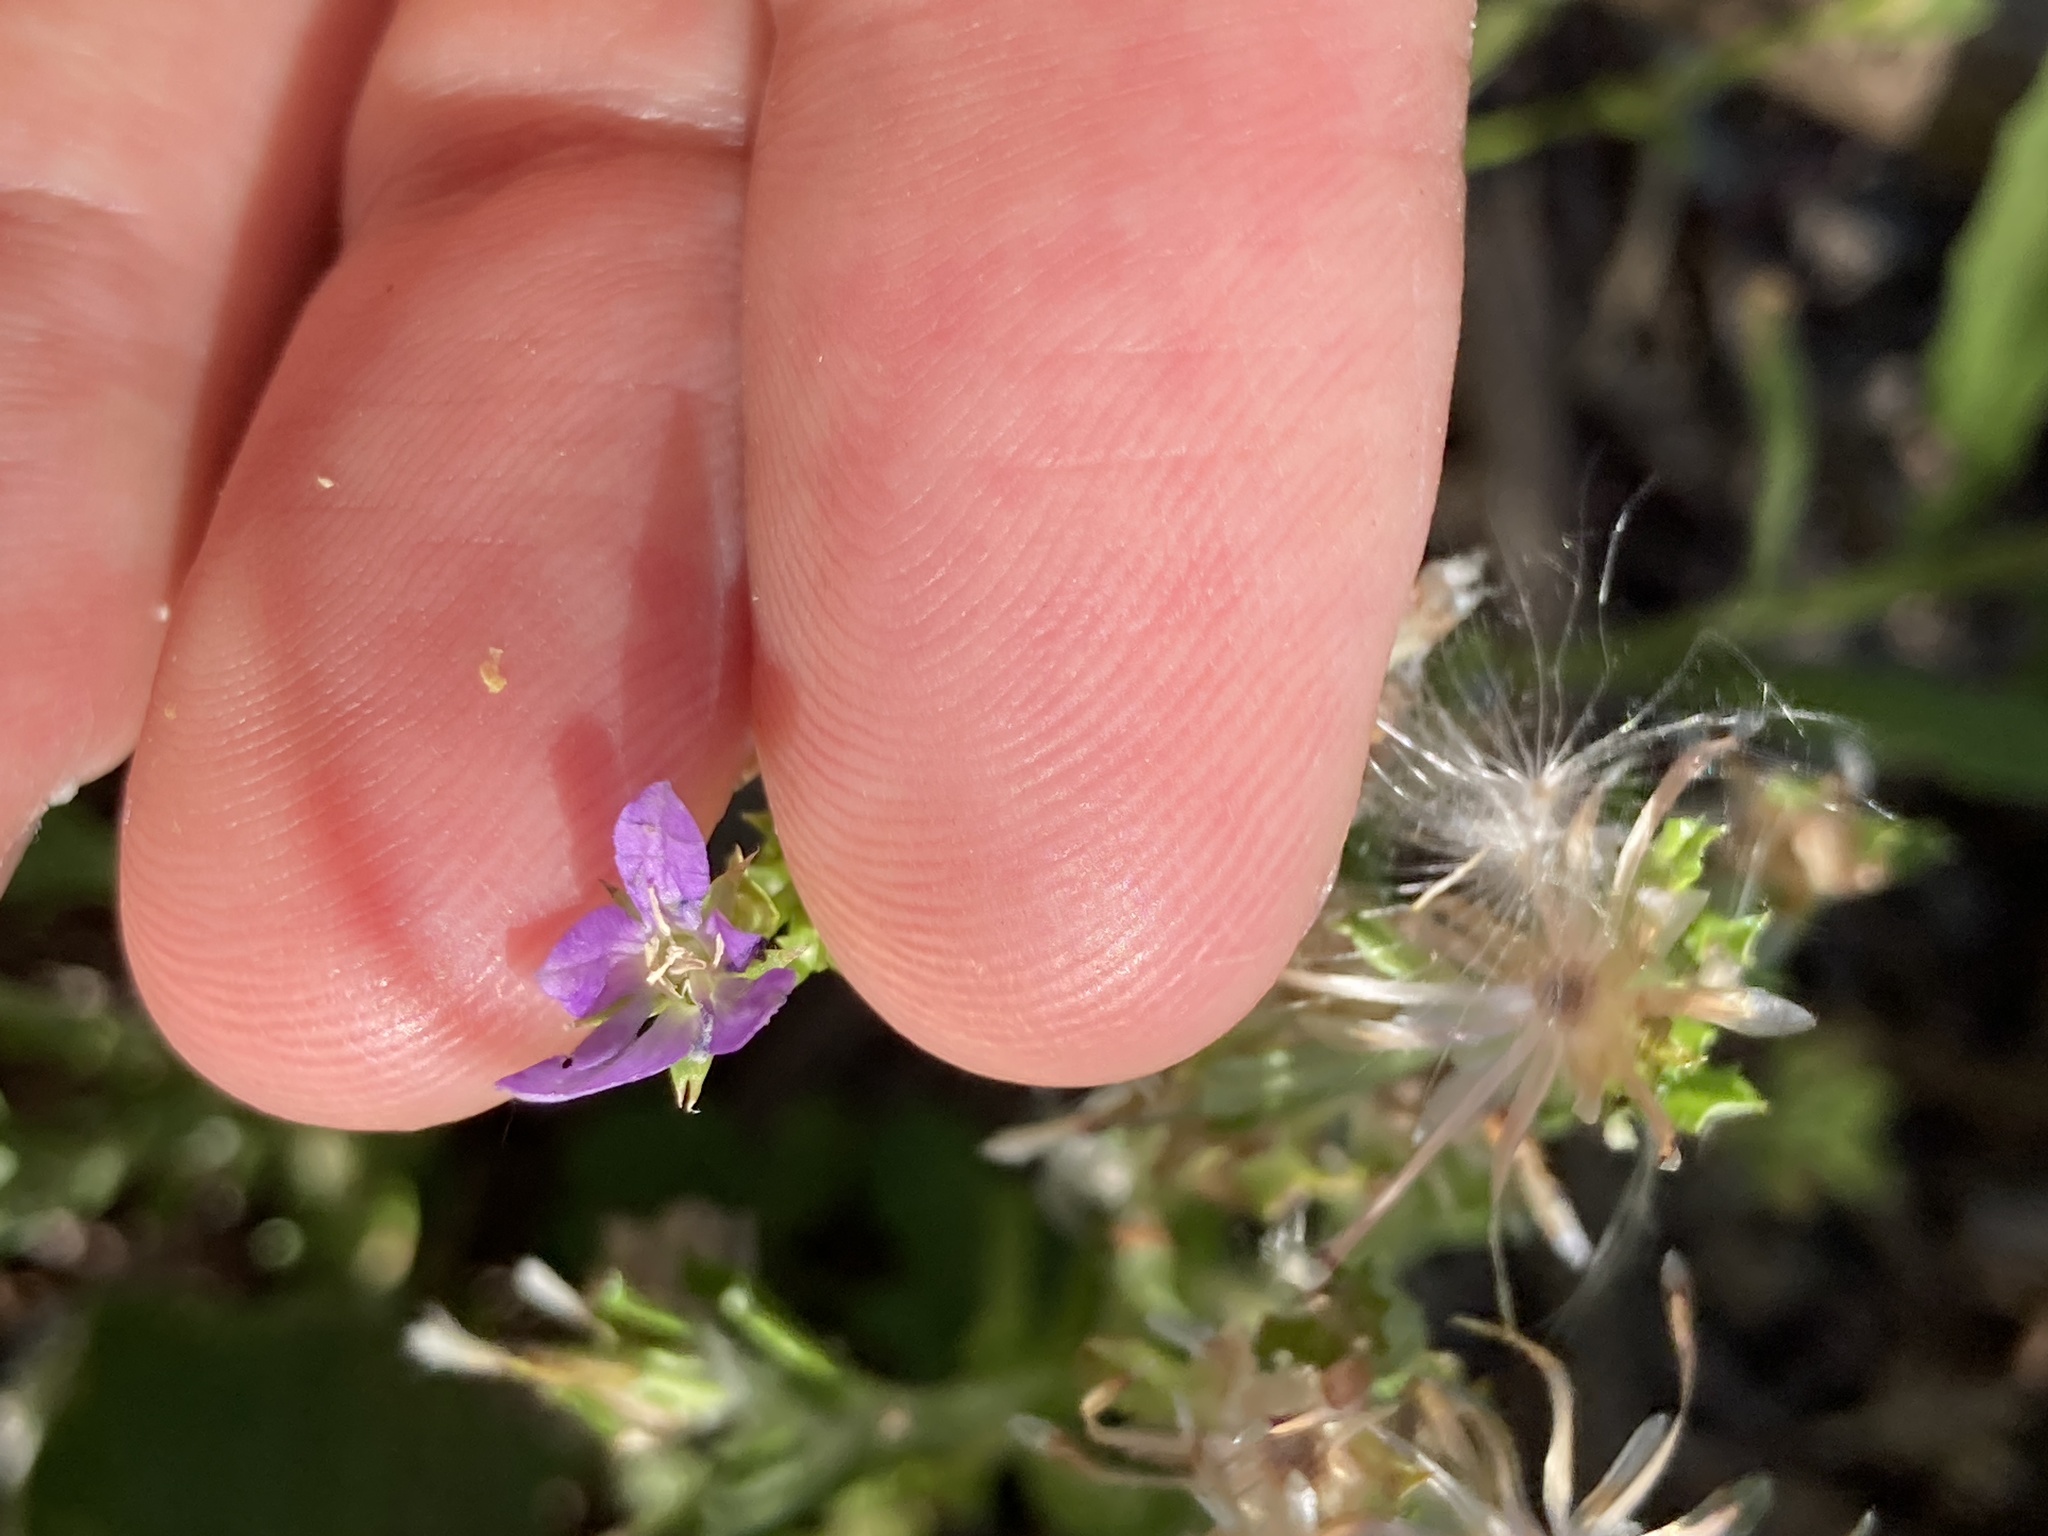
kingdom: Plantae
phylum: Tracheophyta
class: Magnoliopsida
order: Asterales
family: Campanulaceae
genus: Triodanis
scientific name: Triodanis biflora
